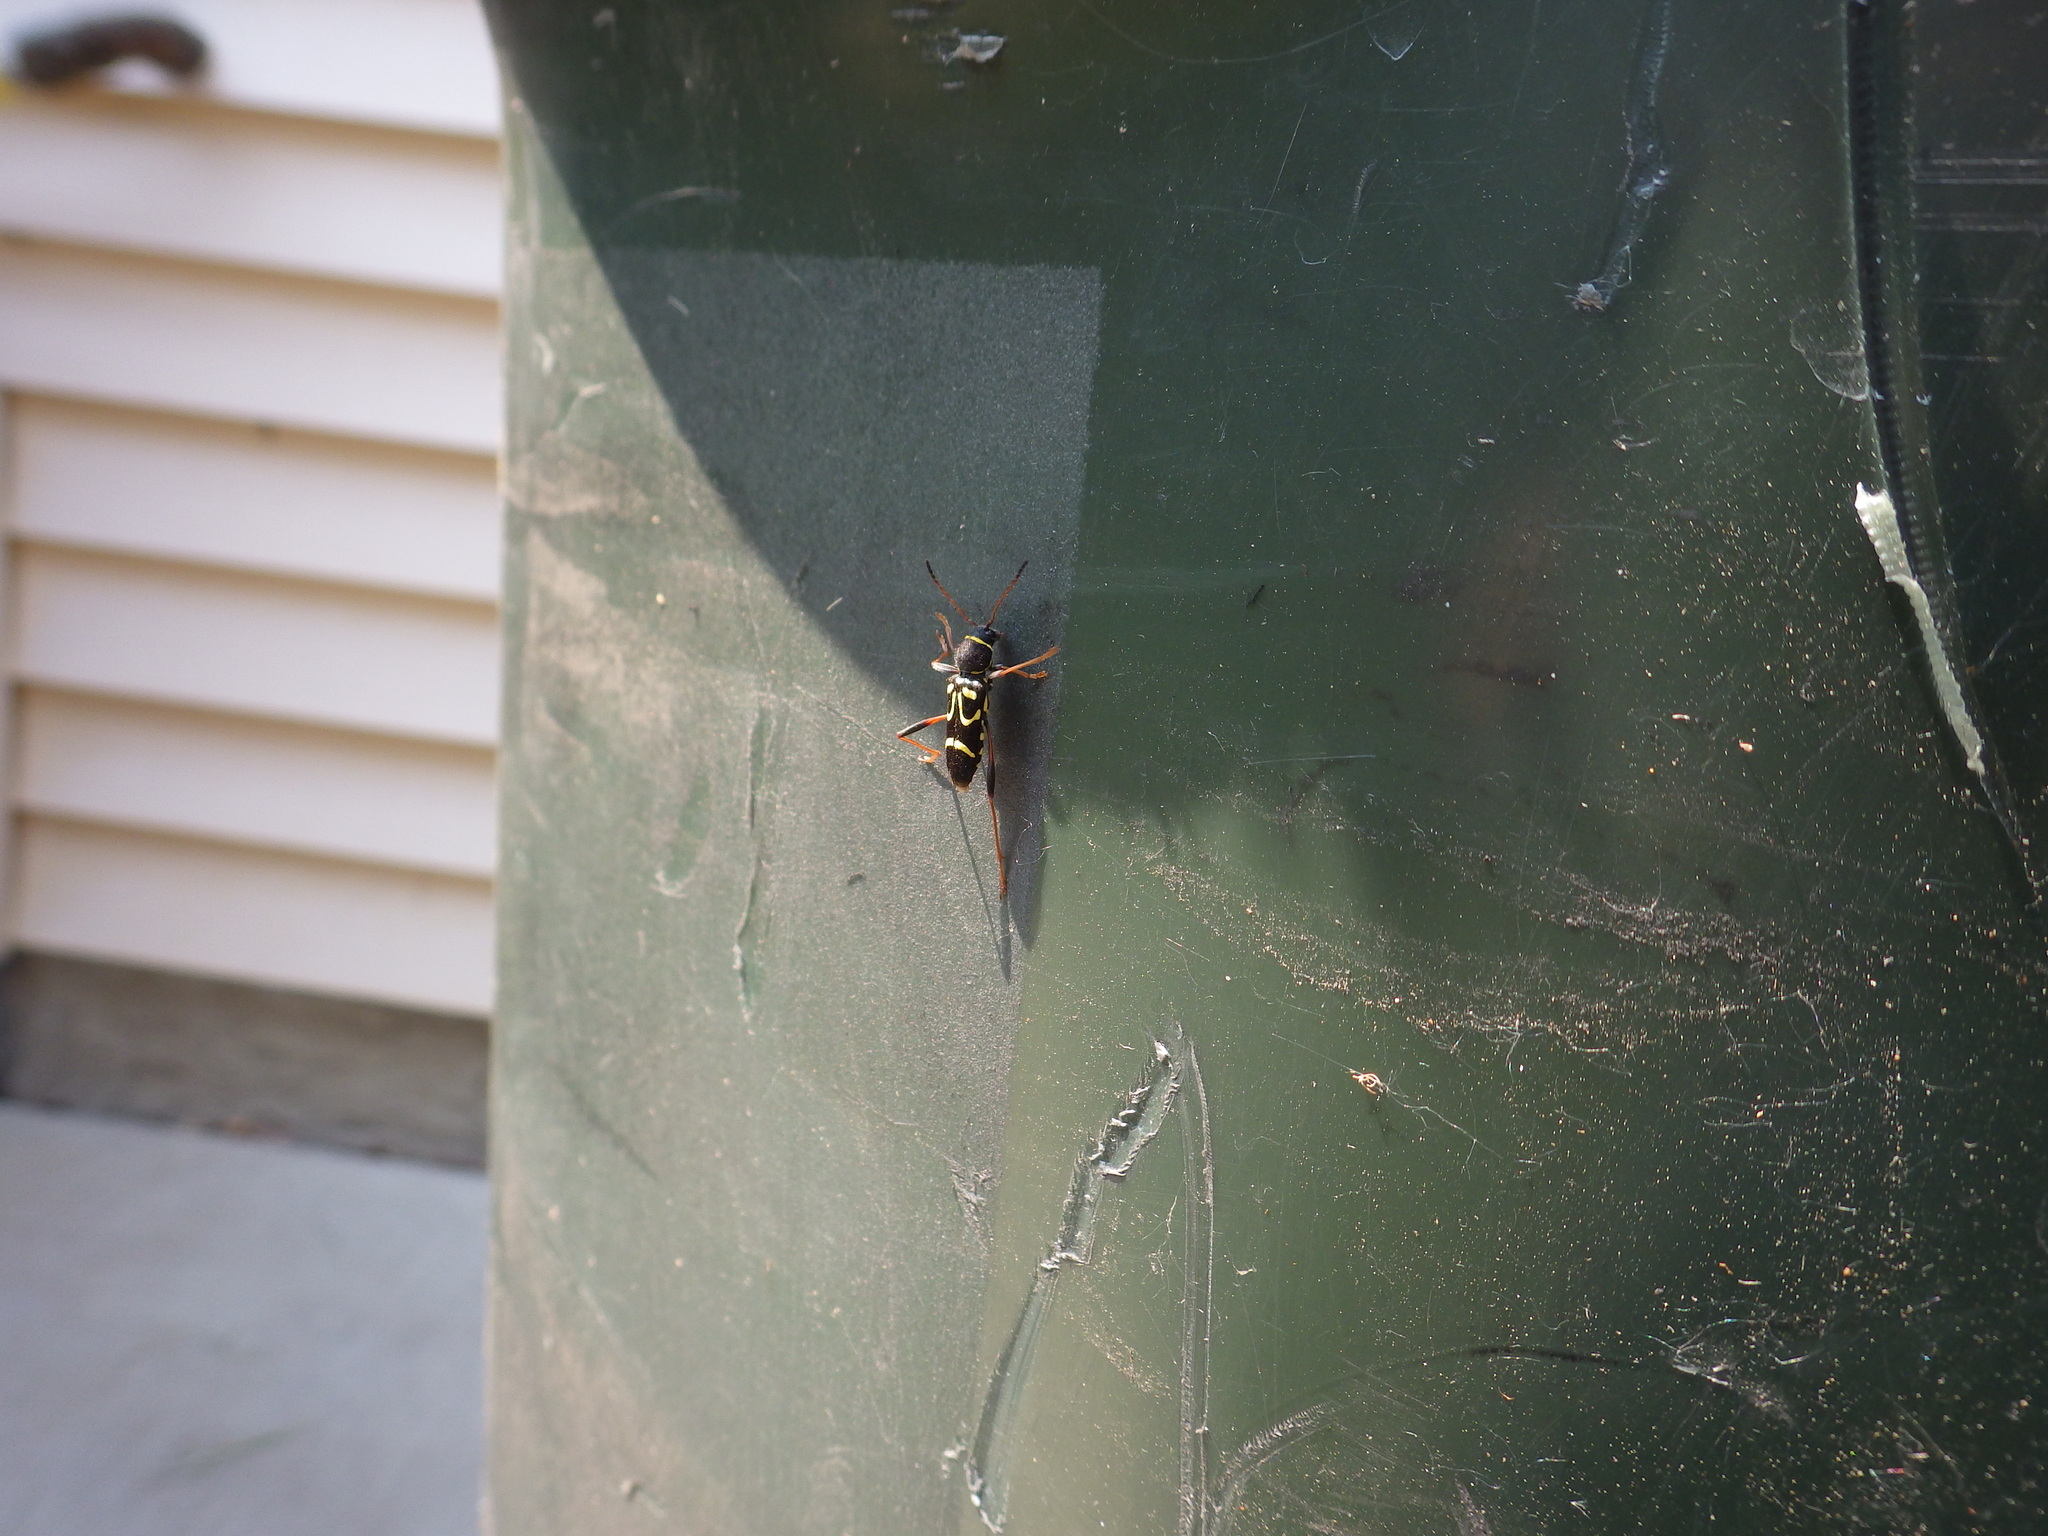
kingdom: Animalia
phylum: Arthropoda
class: Insecta
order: Coleoptera
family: Cerambycidae
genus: Clytus
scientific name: Clytus ruricola
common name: Round-necked longhorn beetle
